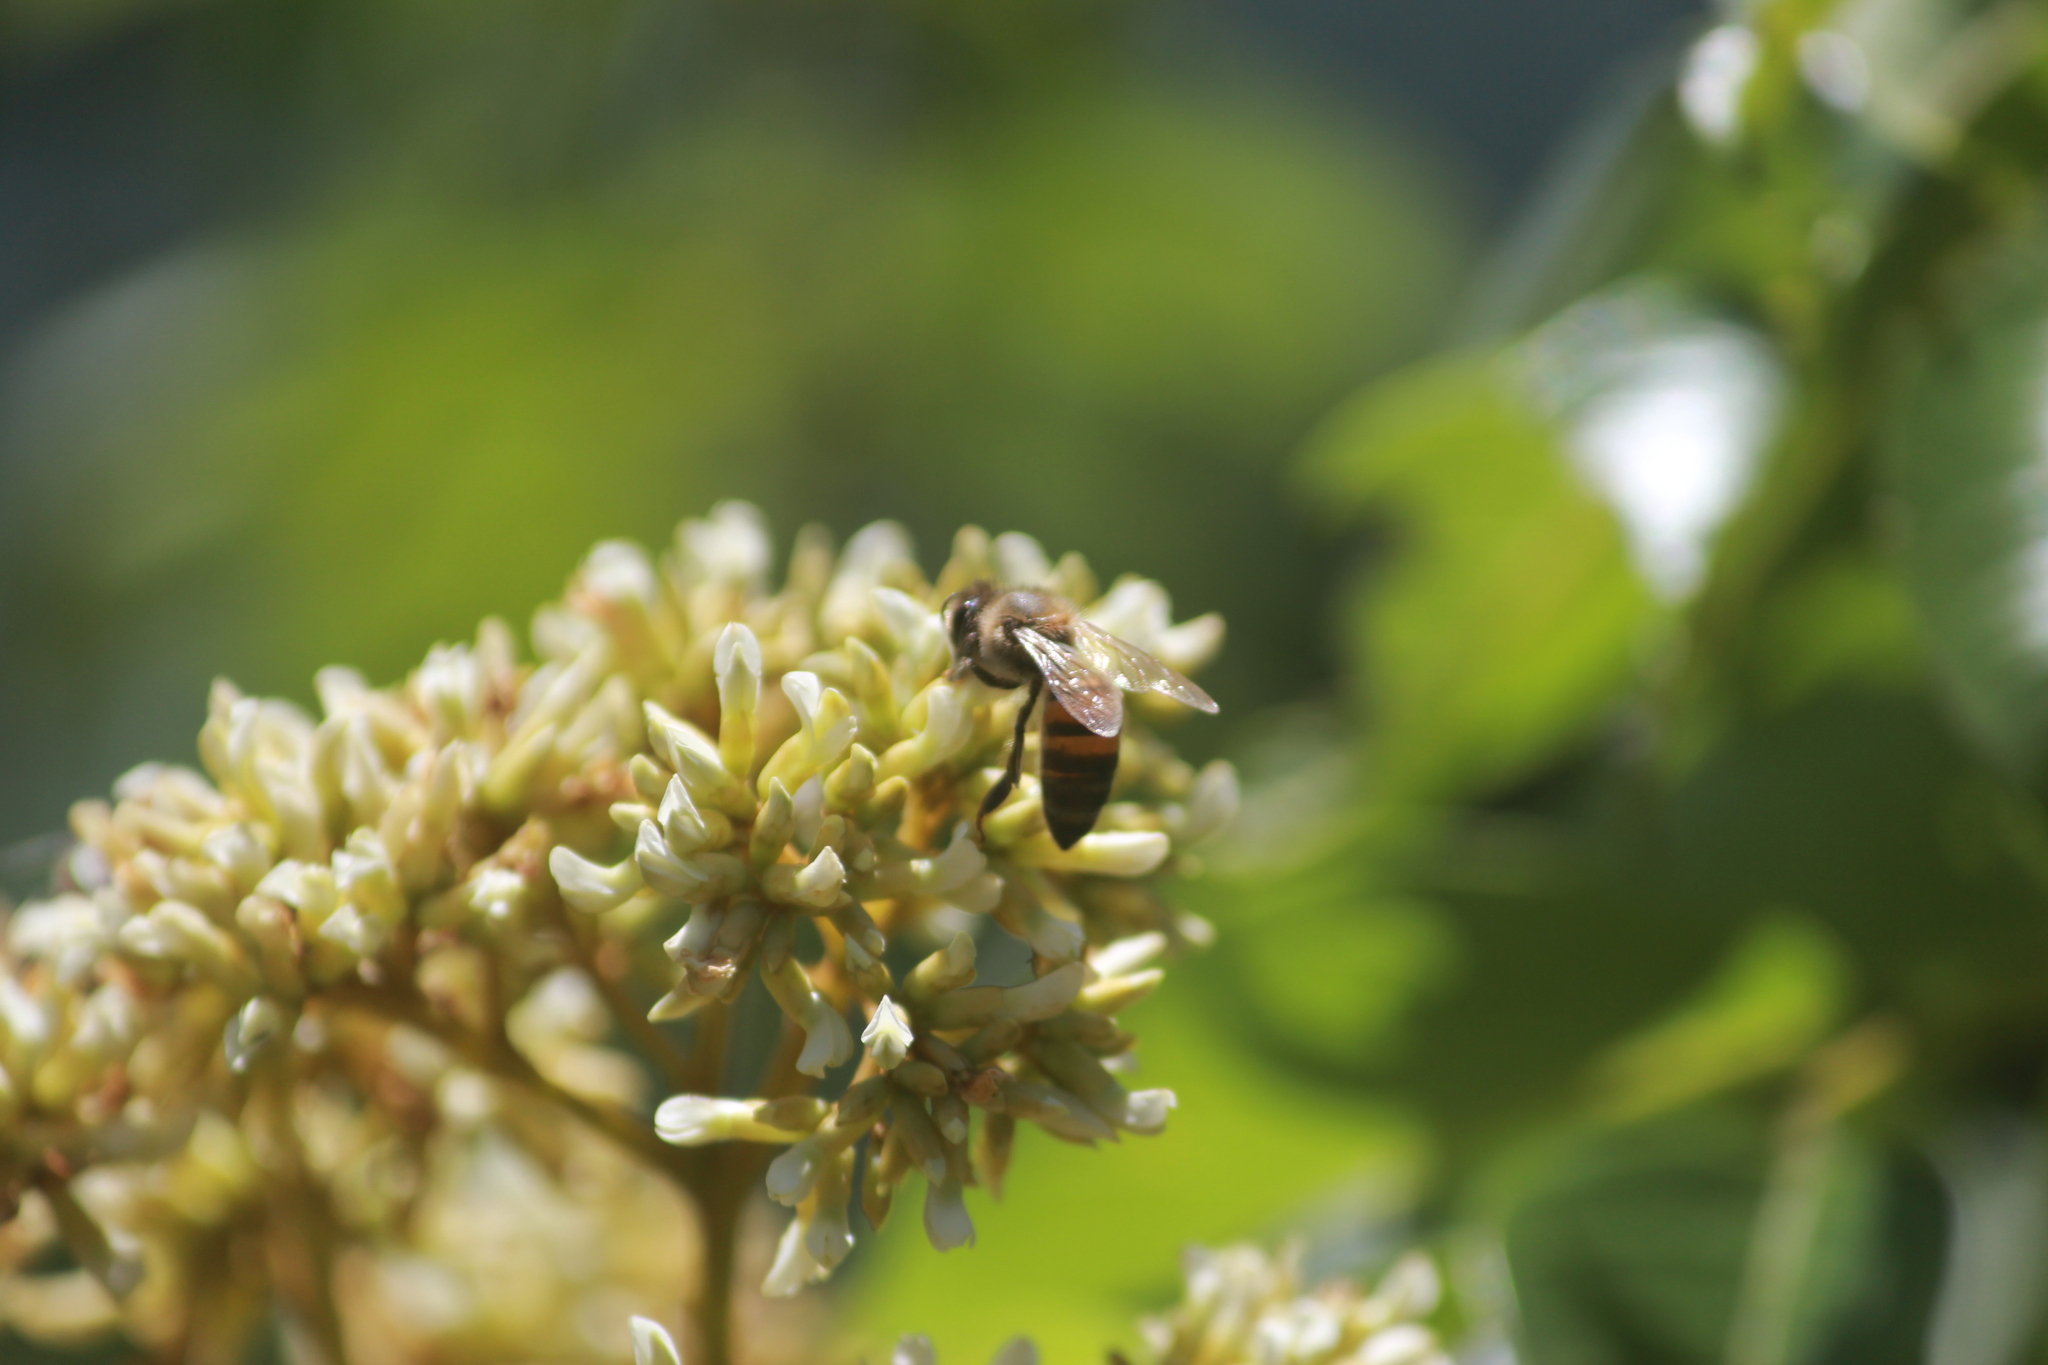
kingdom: Animalia
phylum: Arthropoda
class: Insecta
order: Hymenoptera
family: Apidae
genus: Apis
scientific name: Apis mellifera
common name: Honey bee
